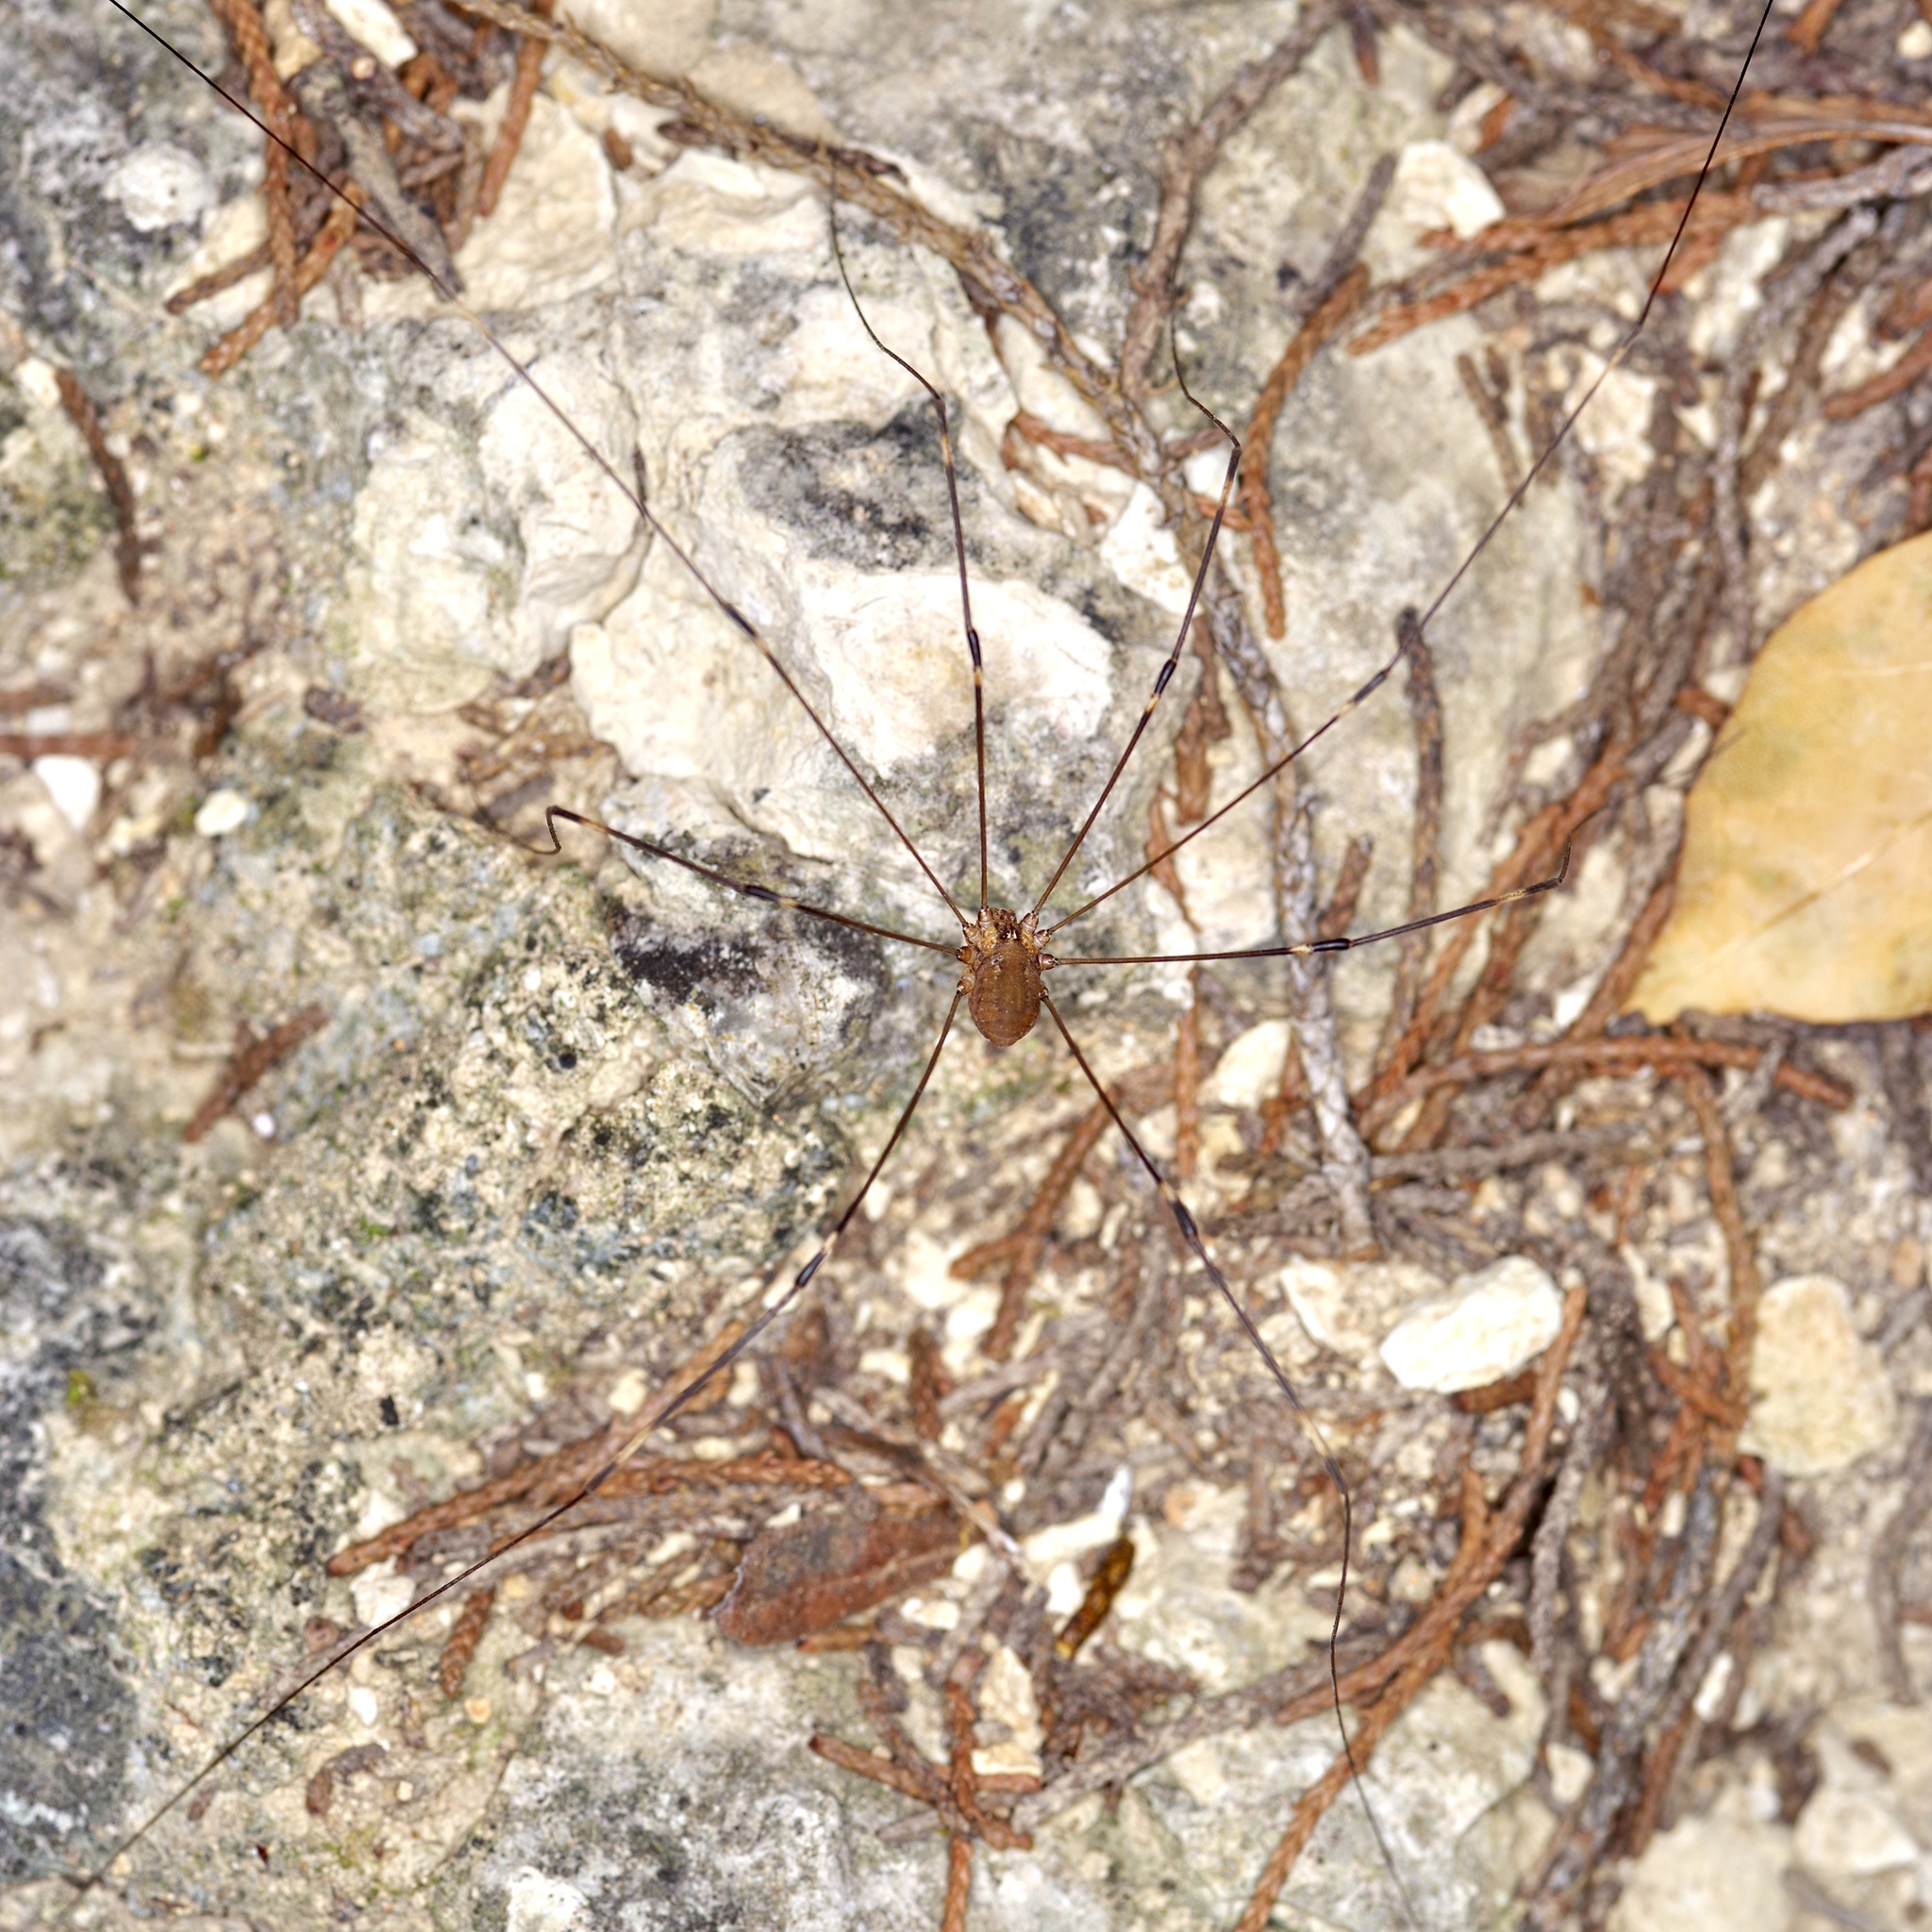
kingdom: Animalia
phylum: Arthropoda
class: Arachnida
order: Opiliones
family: Sclerosomatidae
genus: Leiobunum
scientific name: Leiobunum townsendi
